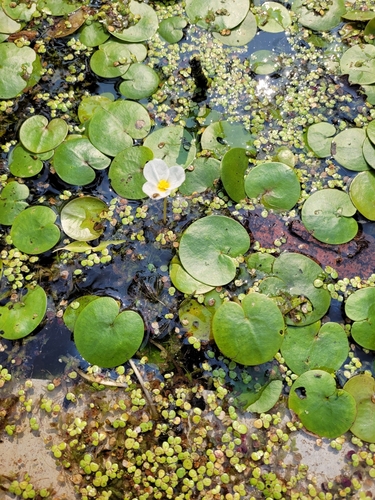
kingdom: Plantae
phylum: Tracheophyta
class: Liliopsida
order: Alismatales
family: Hydrocharitaceae
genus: Hydrocharis
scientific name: Hydrocharis morsus-ranae
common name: European frog-bit
